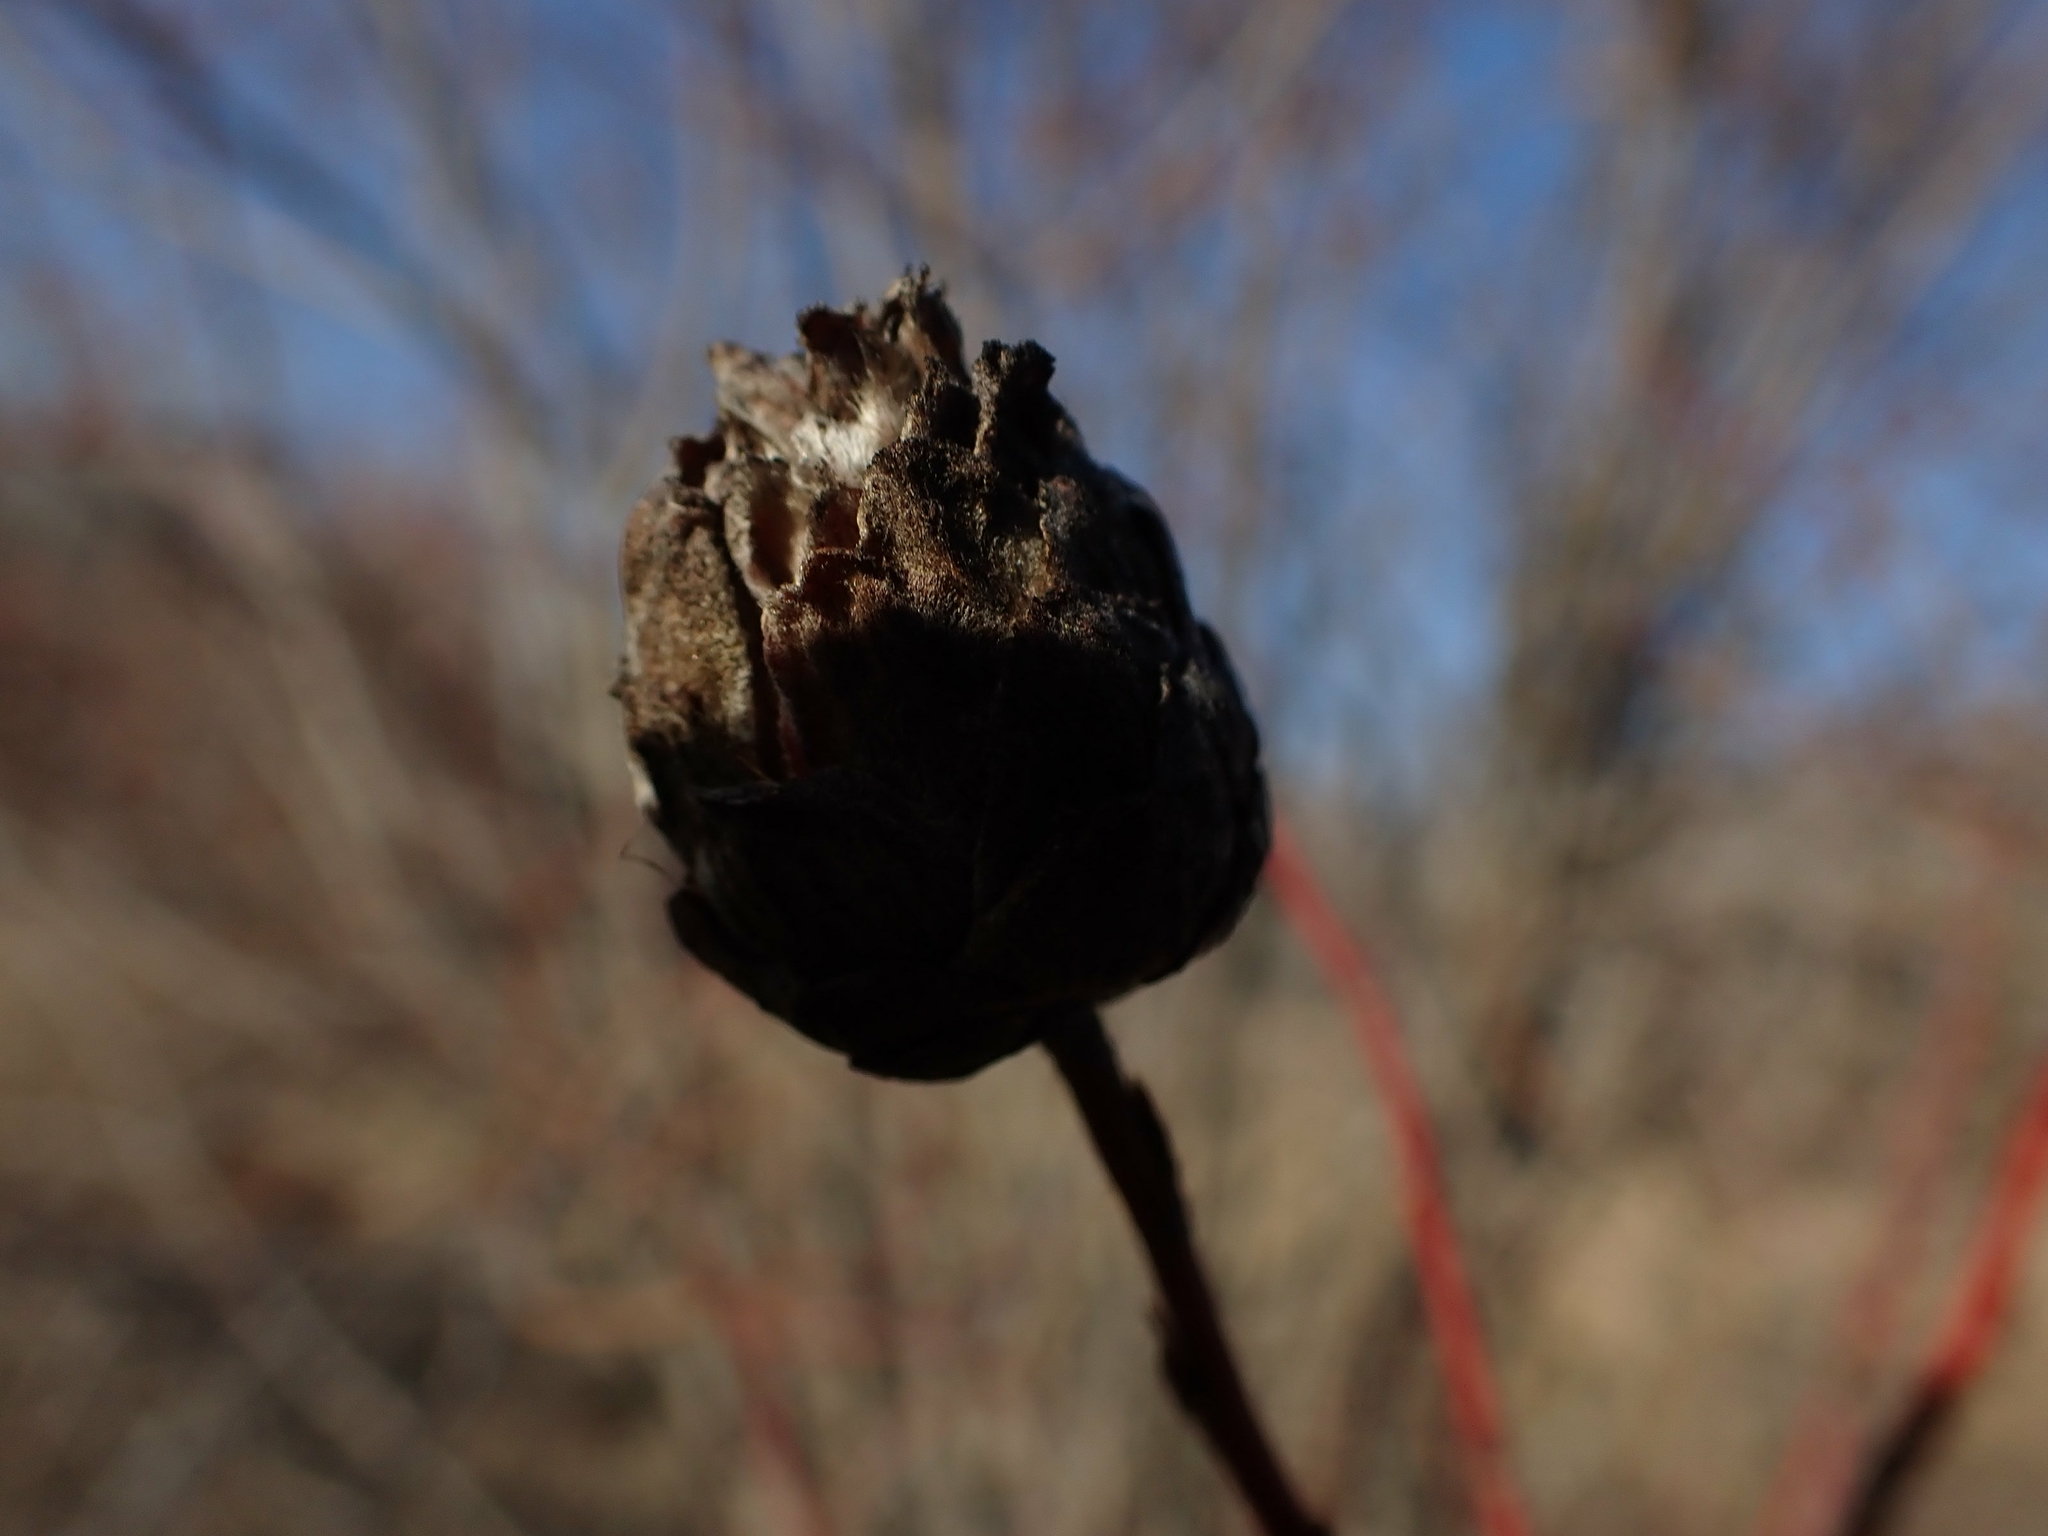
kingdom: Animalia
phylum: Arthropoda
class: Insecta
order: Diptera
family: Cecidomyiidae
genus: Rabdophaga
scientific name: Rabdophaga strobiloides
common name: Willow pinecone gall midge
